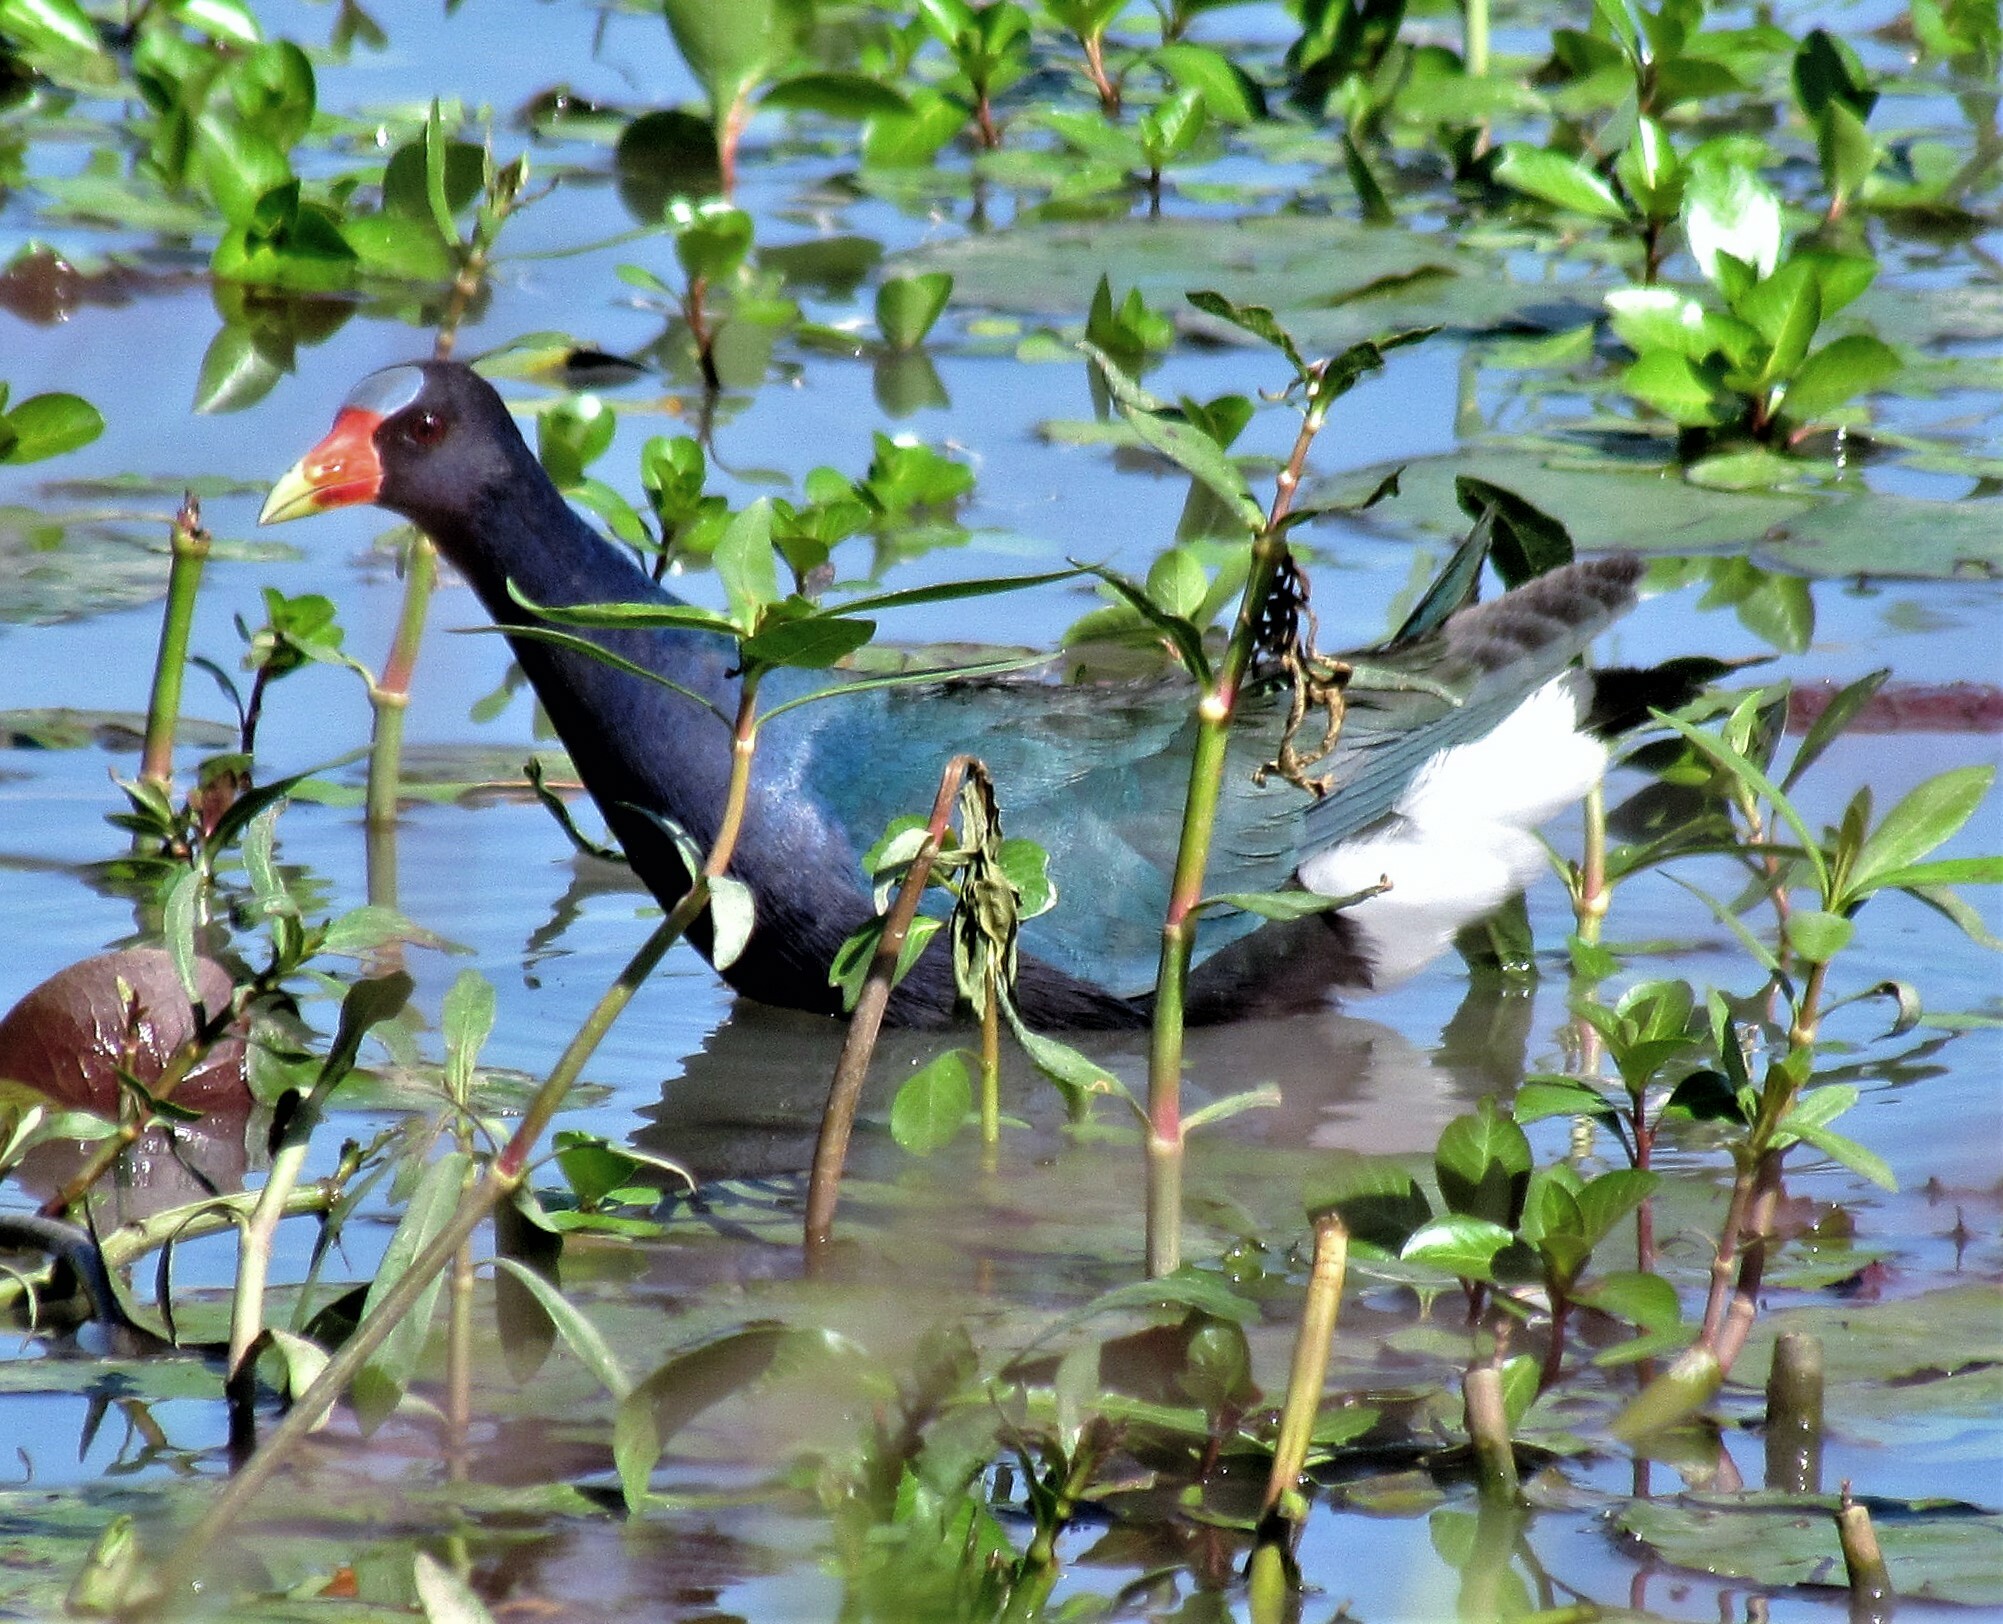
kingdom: Animalia
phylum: Chordata
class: Aves
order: Gruiformes
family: Rallidae
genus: Porphyrio
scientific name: Porphyrio martinica
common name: Purple gallinule
